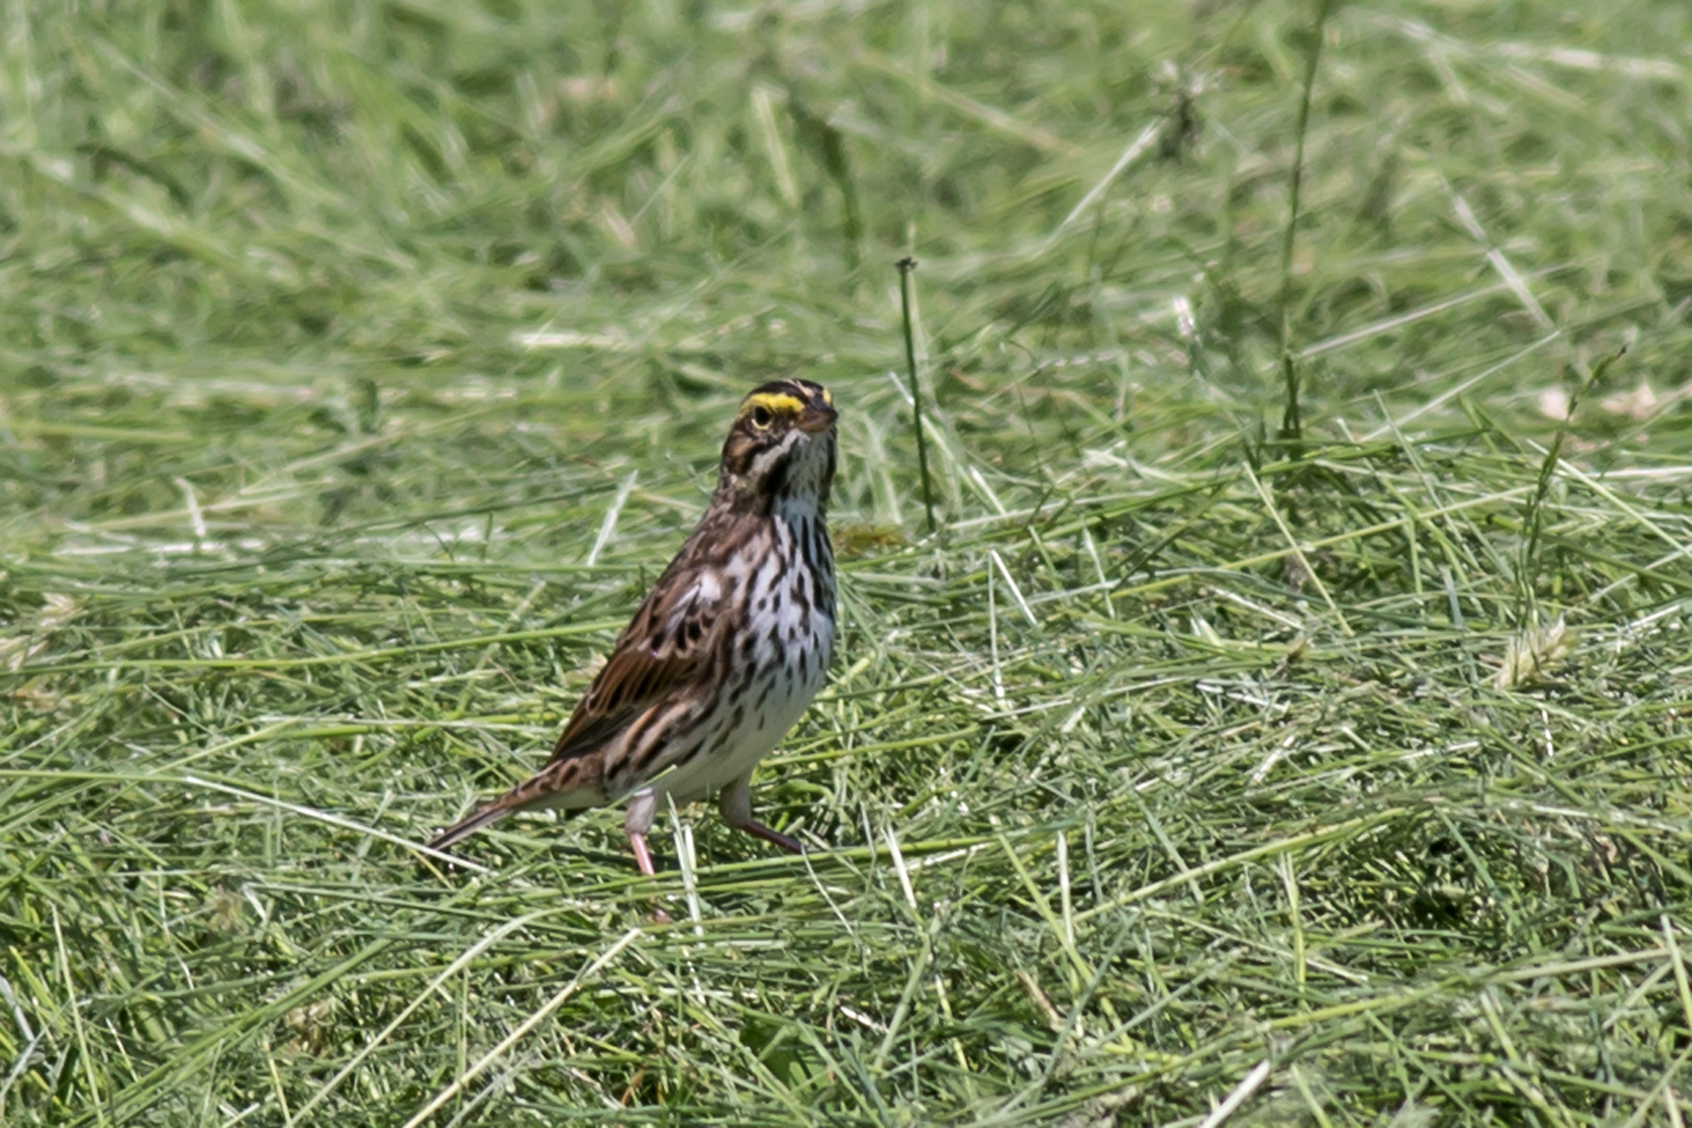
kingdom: Animalia
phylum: Chordata
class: Aves
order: Passeriformes
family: Passerellidae
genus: Passerculus
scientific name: Passerculus sandwichensis
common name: Savannah sparrow
